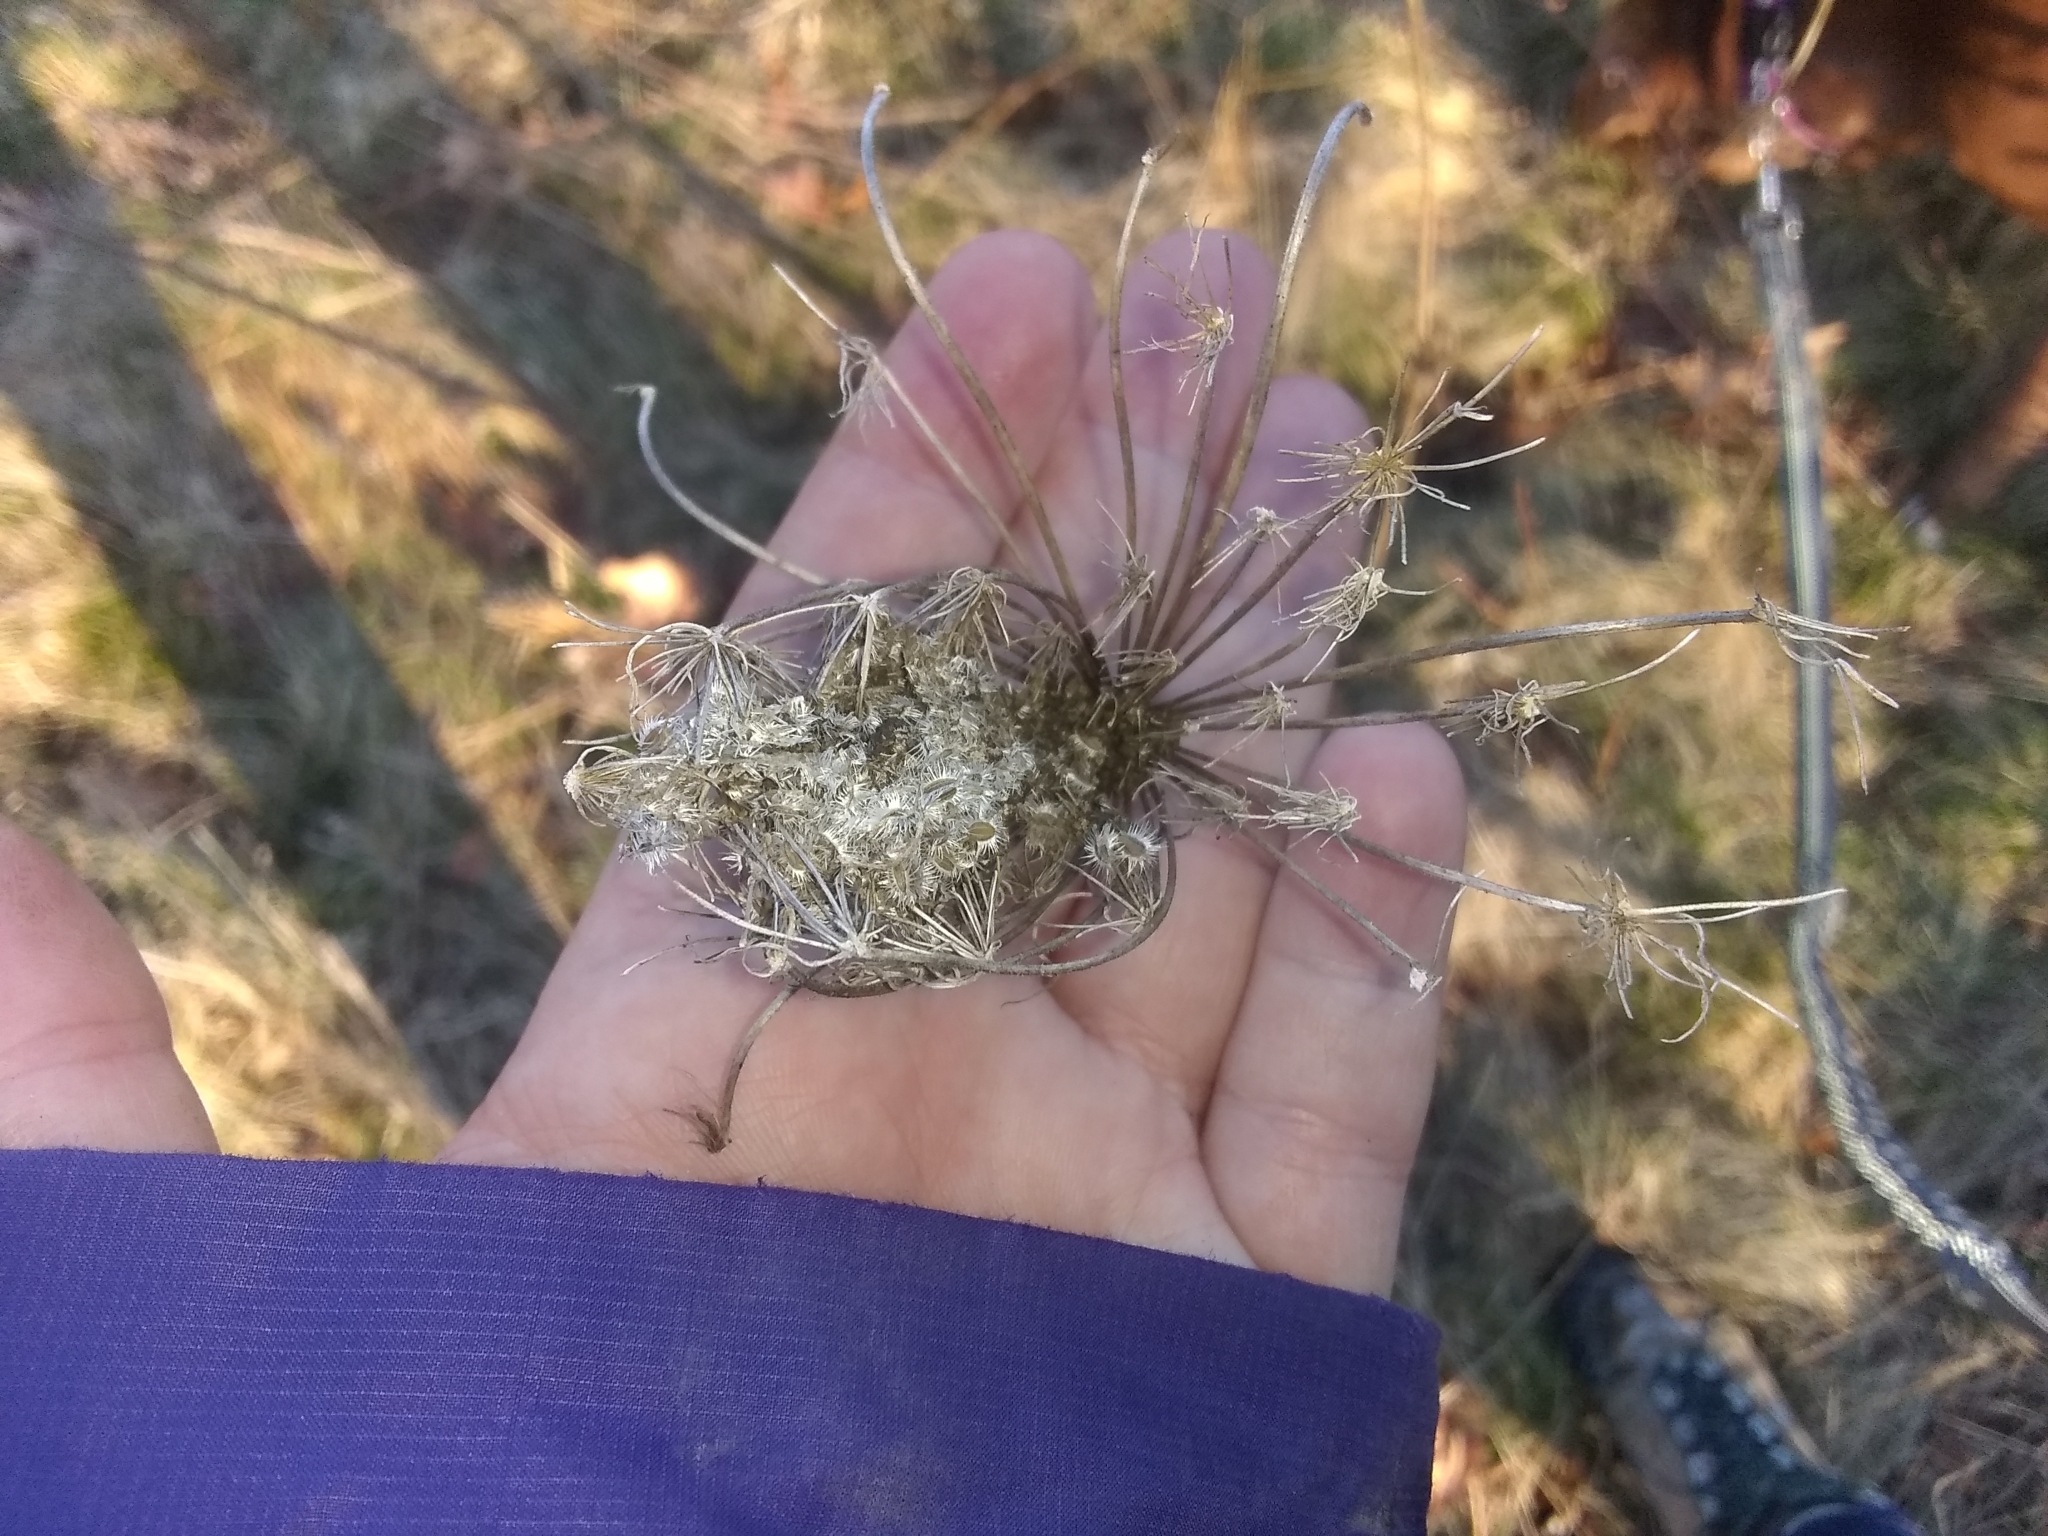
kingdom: Plantae
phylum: Tracheophyta
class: Magnoliopsida
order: Apiales
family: Apiaceae
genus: Daucus
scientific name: Daucus carota
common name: Wild carrot
